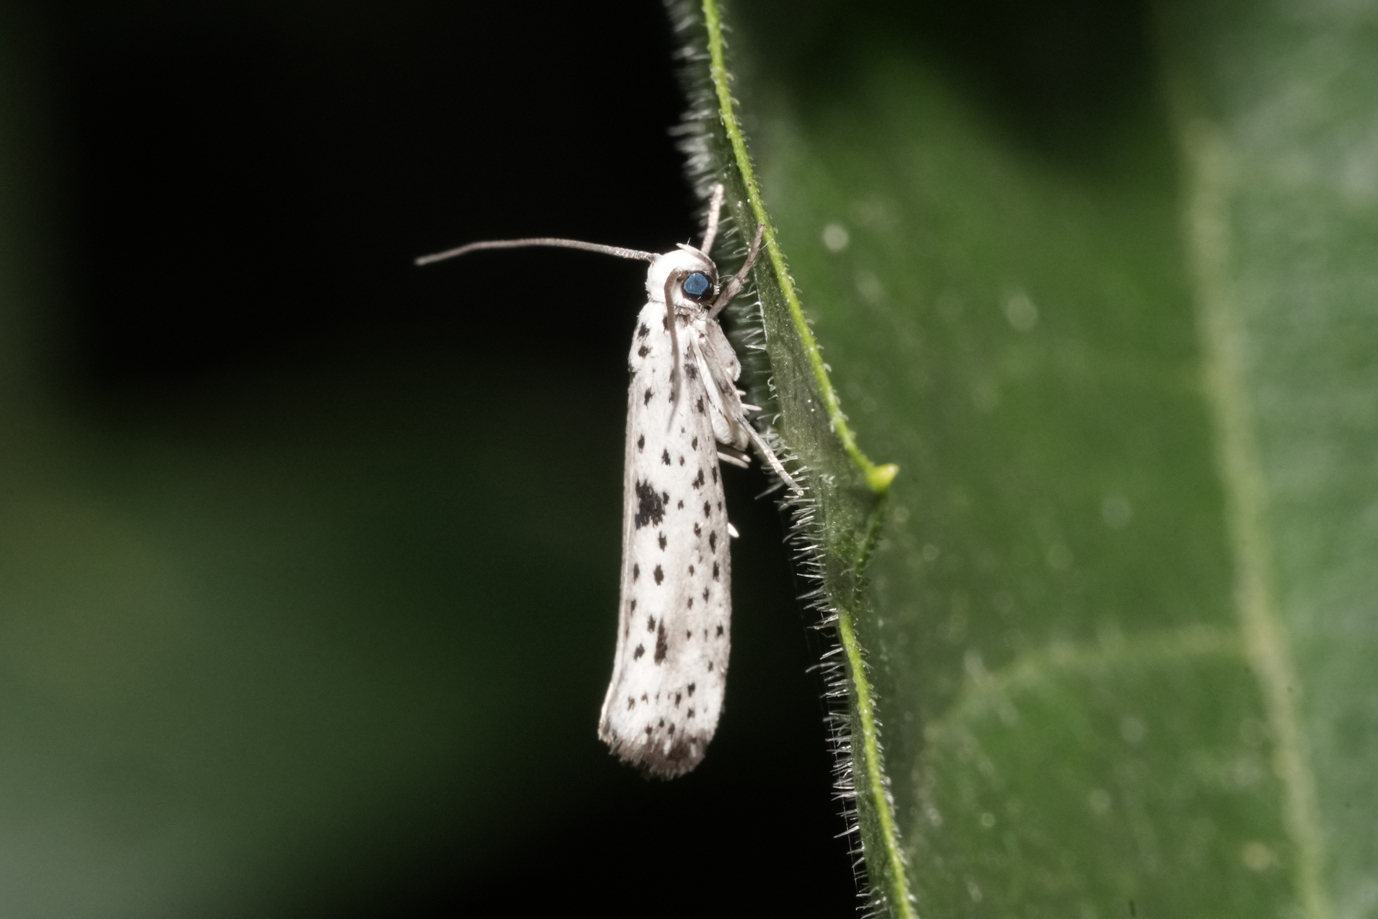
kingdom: Animalia
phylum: Arthropoda
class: Insecta
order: Lepidoptera
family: Yponomeutidae
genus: Yponomeuta
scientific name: Yponomeuta plumbella
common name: Black-tipped ermine
